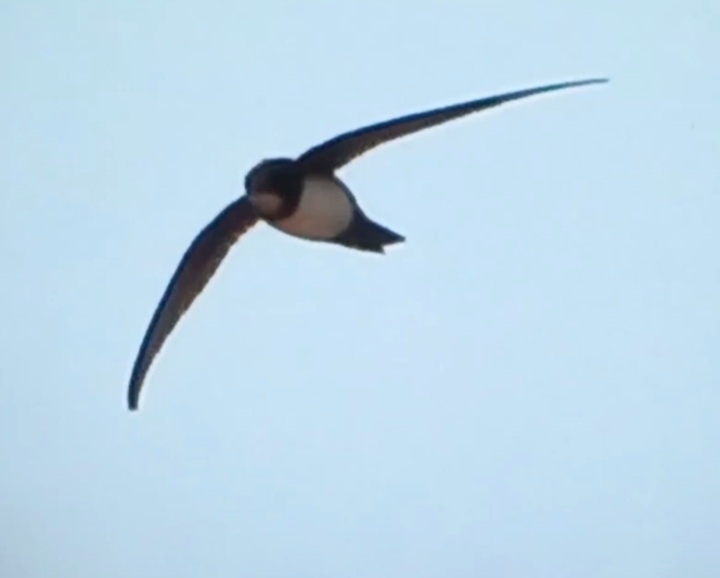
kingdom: Animalia
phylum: Chordata
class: Aves
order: Apodiformes
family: Apodidae
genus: Tachymarptis
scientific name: Tachymarptis melba
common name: Alpine swift
